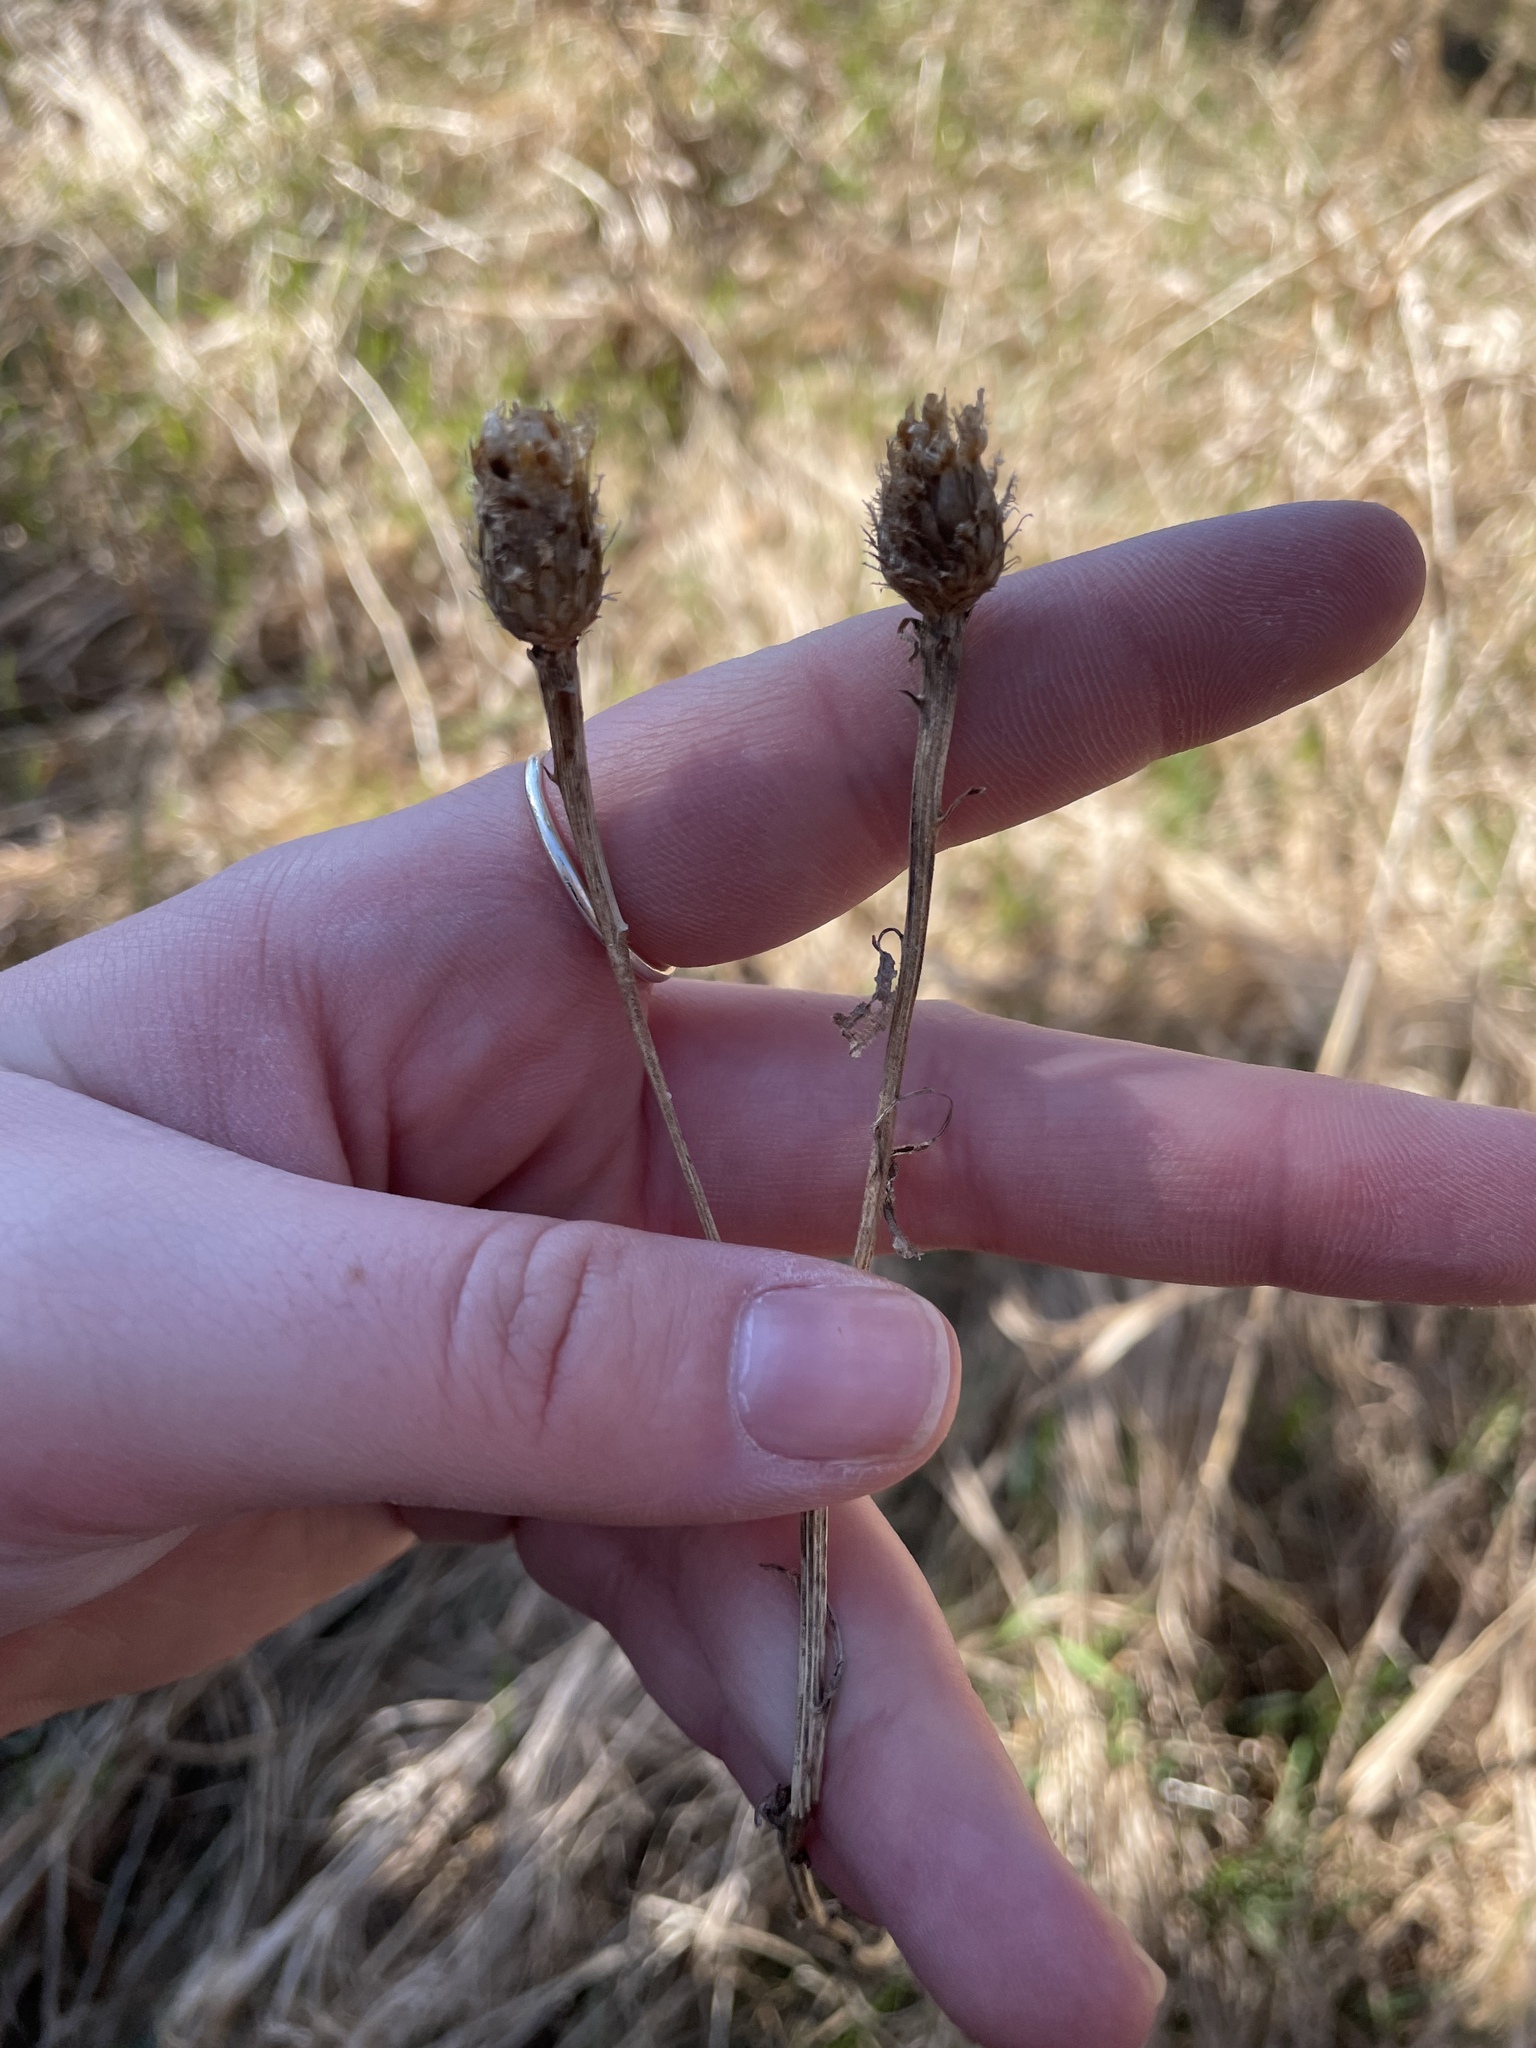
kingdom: Plantae
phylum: Tracheophyta
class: Magnoliopsida
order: Asterales
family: Asteraceae
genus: Centaurea
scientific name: Centaurea nigra
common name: Lesser knapweed
